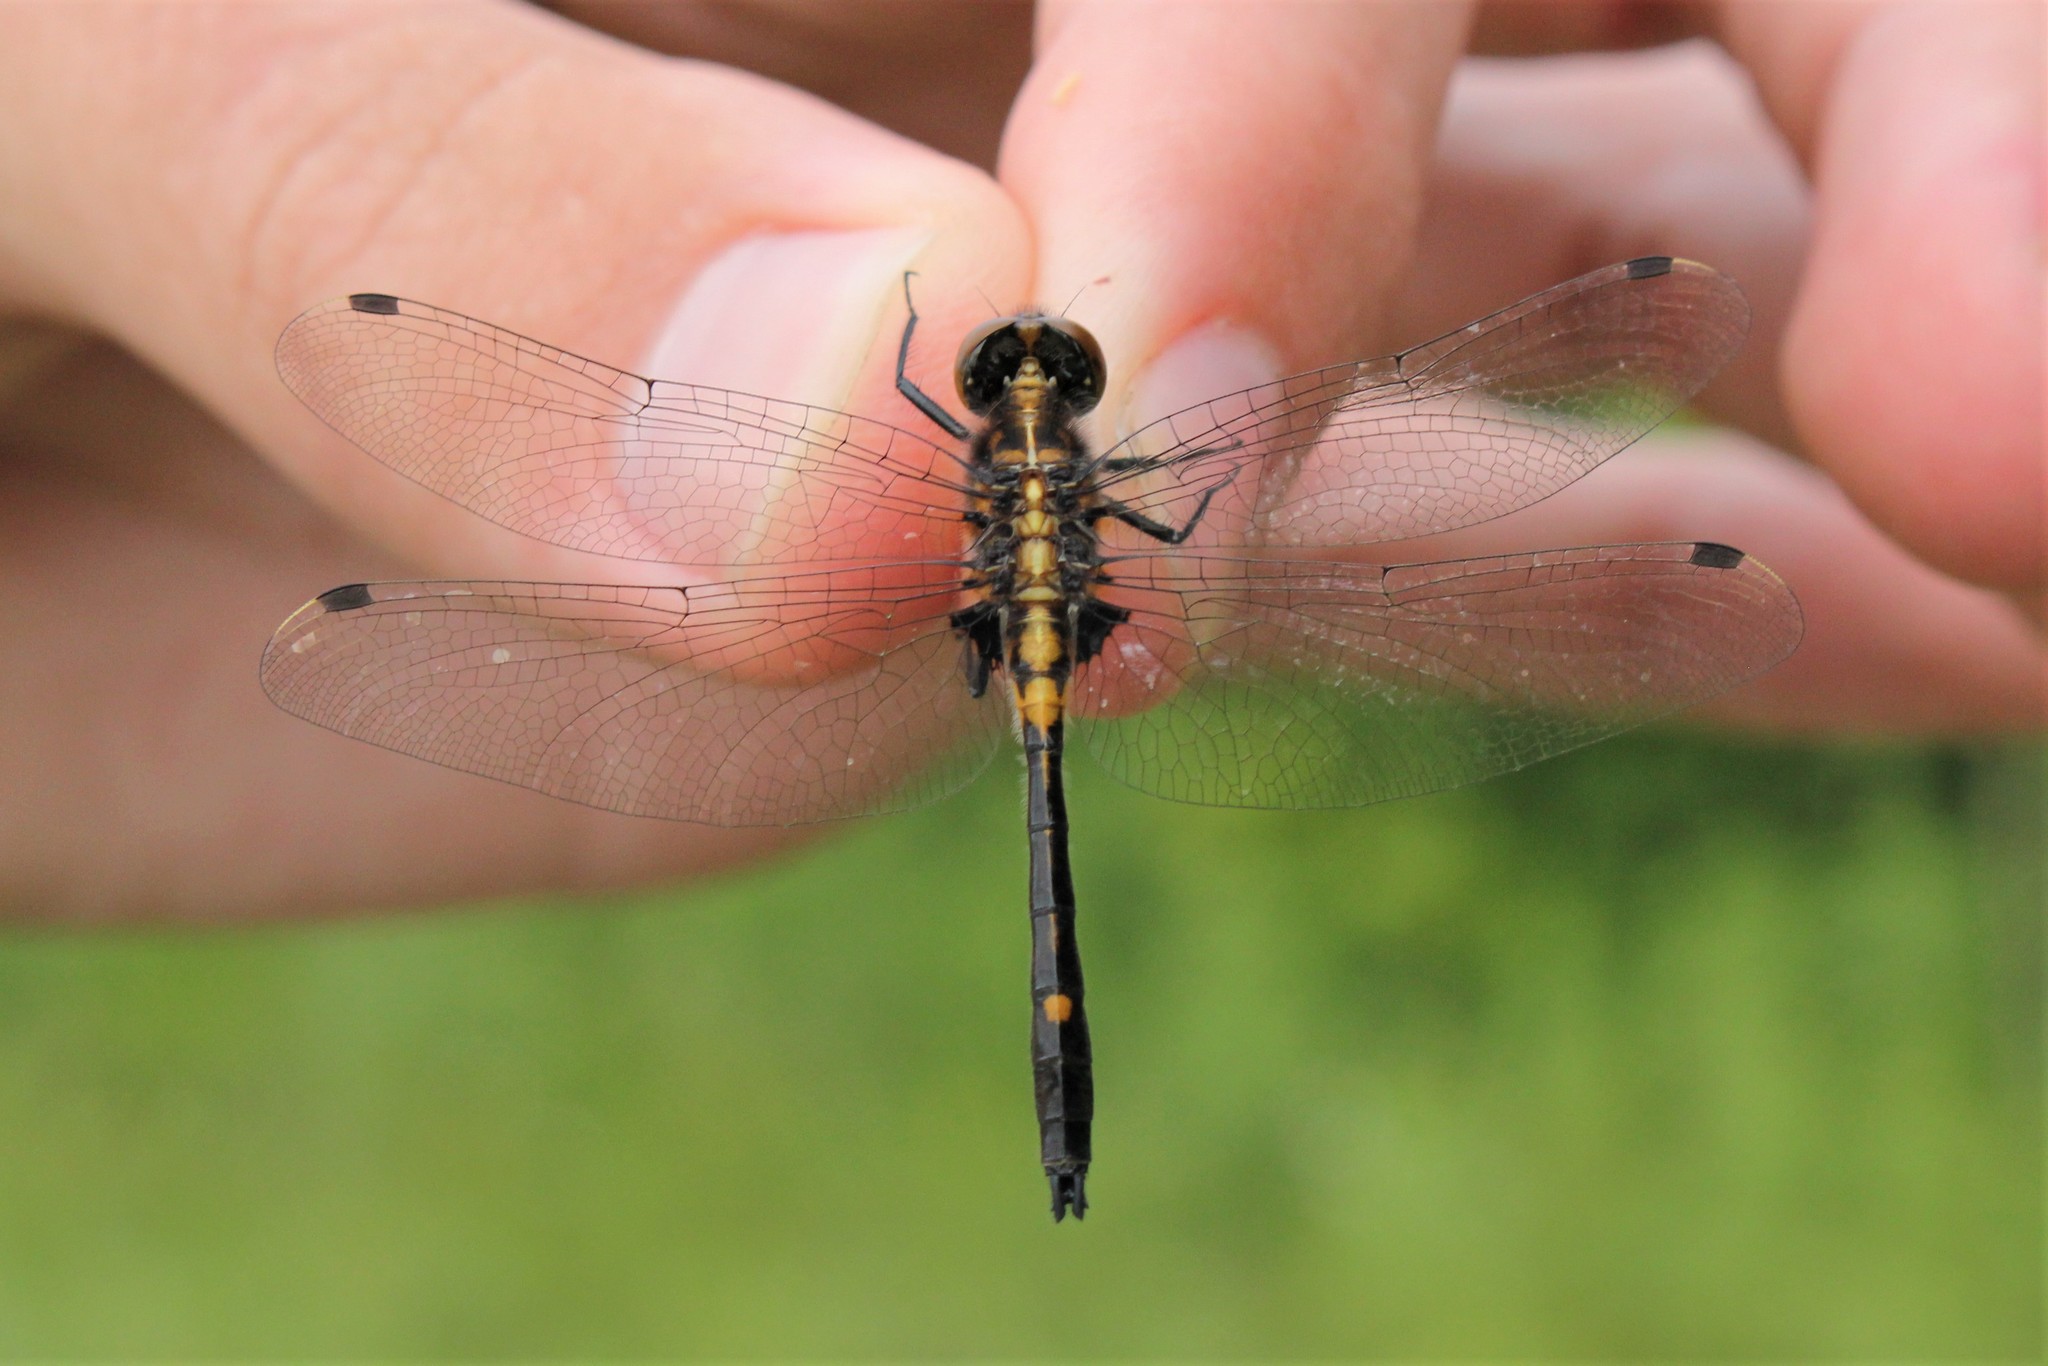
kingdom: Animalia
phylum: Arthropoda
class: Insecta
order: Odonata
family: Libellulidae
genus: Leucorrhinia
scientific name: Leucorrhinia intacta
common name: Dot-tailed whiteface
